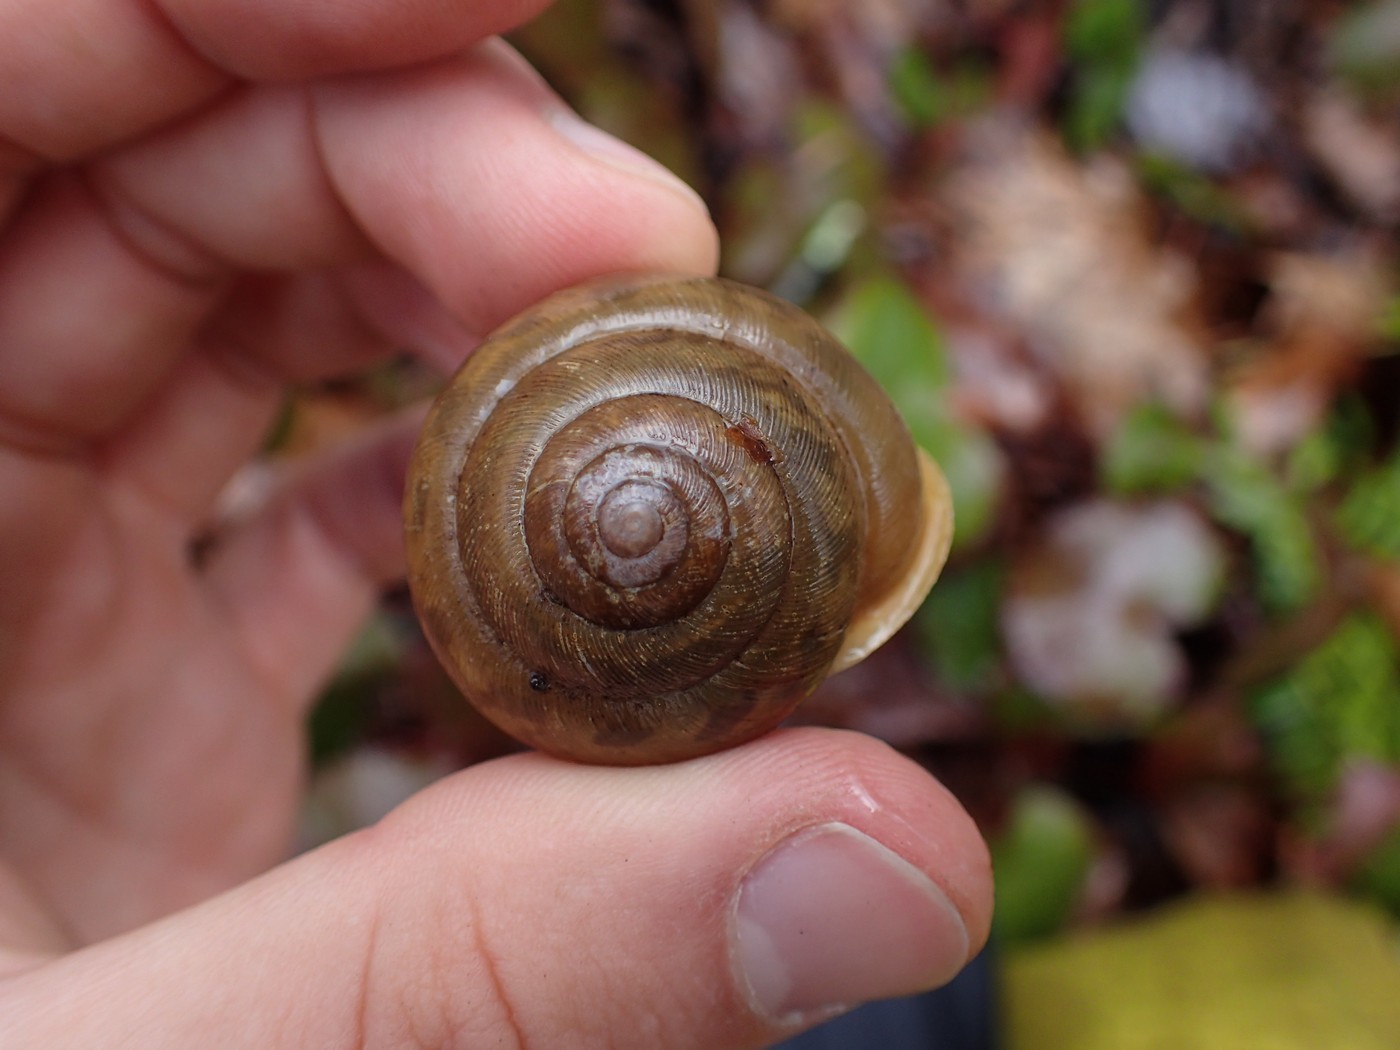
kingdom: Animalia
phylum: Mollusca
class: Gastropoda
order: Stylommatophora
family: Polygyridae
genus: Mesodon
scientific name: Mesodon normalis
